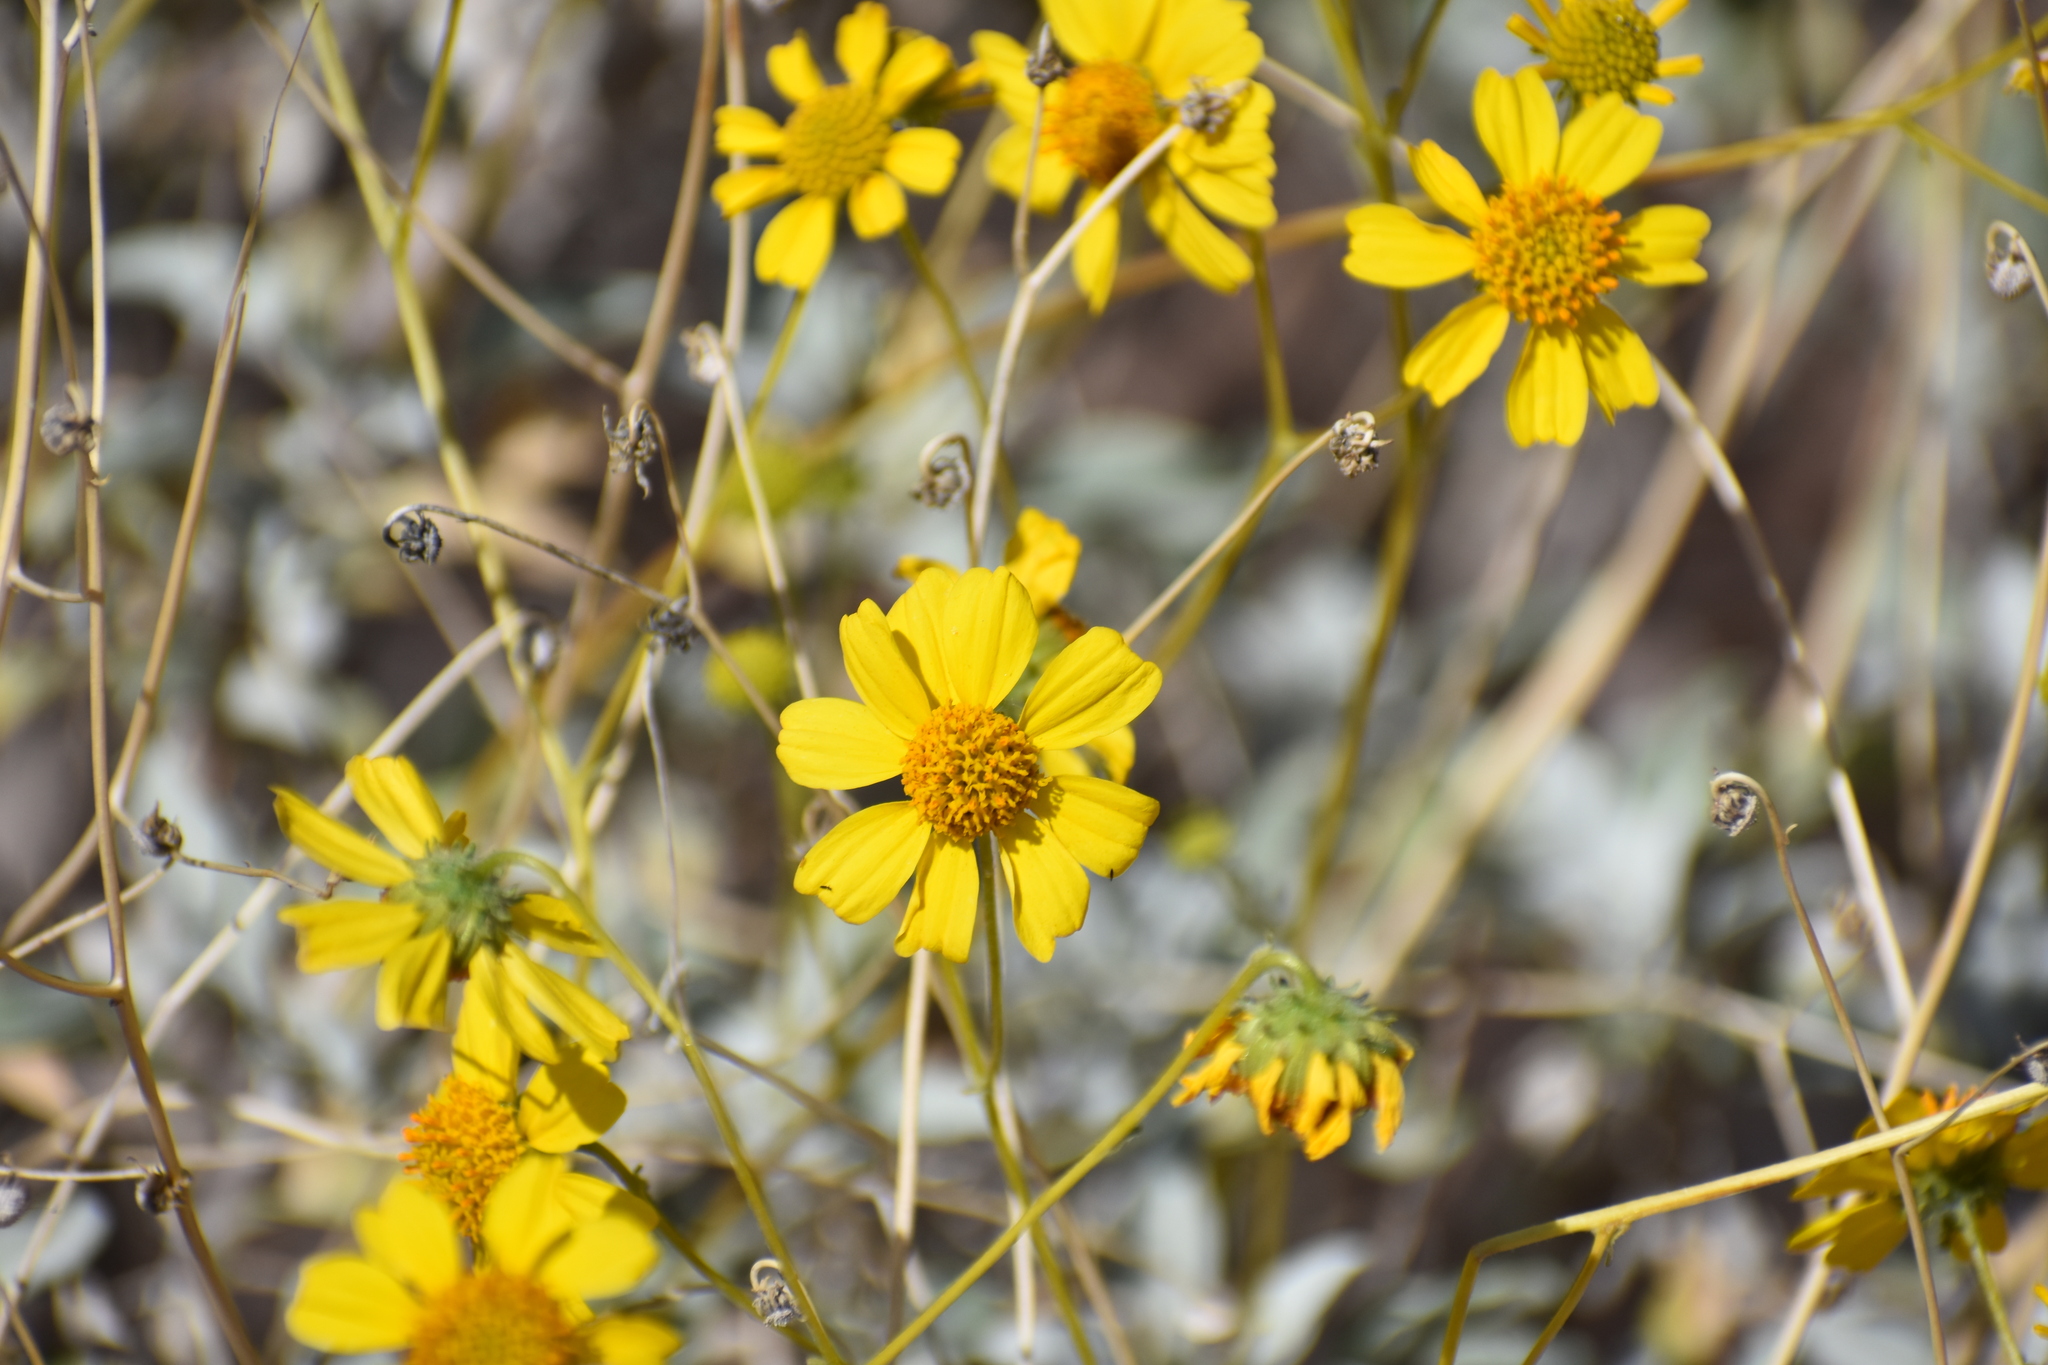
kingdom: Plantae
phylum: Tracheophyta
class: Magnoliopsida
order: Asterales
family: Asteraceae
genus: Encelia
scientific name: Encelia farinosa
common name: Brittlebush
